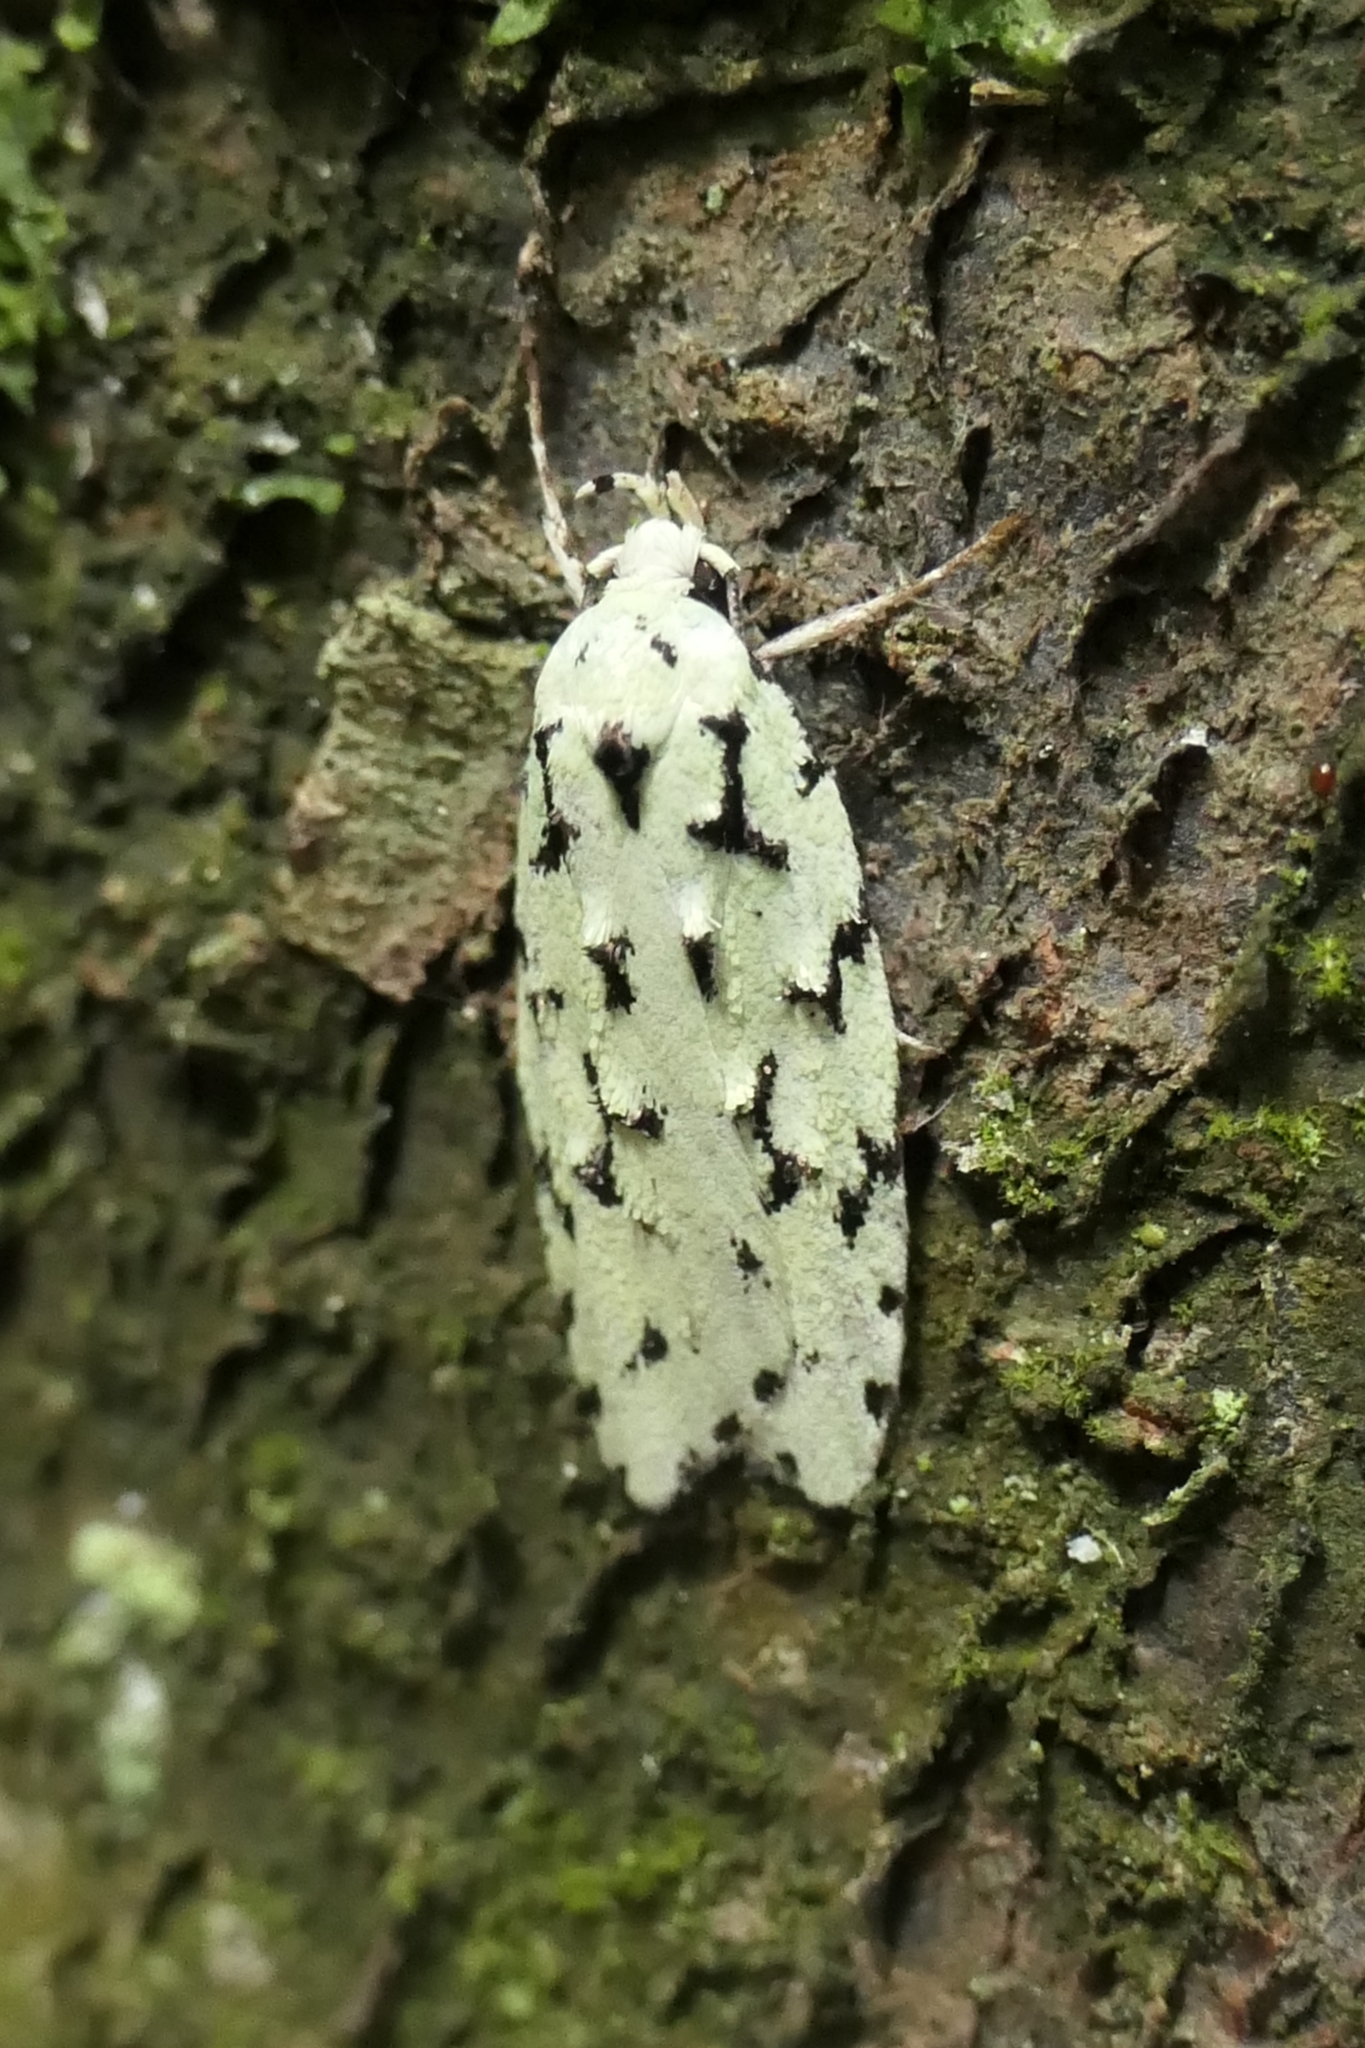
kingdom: Animalia
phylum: Arthropoda
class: Insecta
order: Lepidoptera
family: Oecophoridae
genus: Izatha
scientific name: Izatha huttoni
